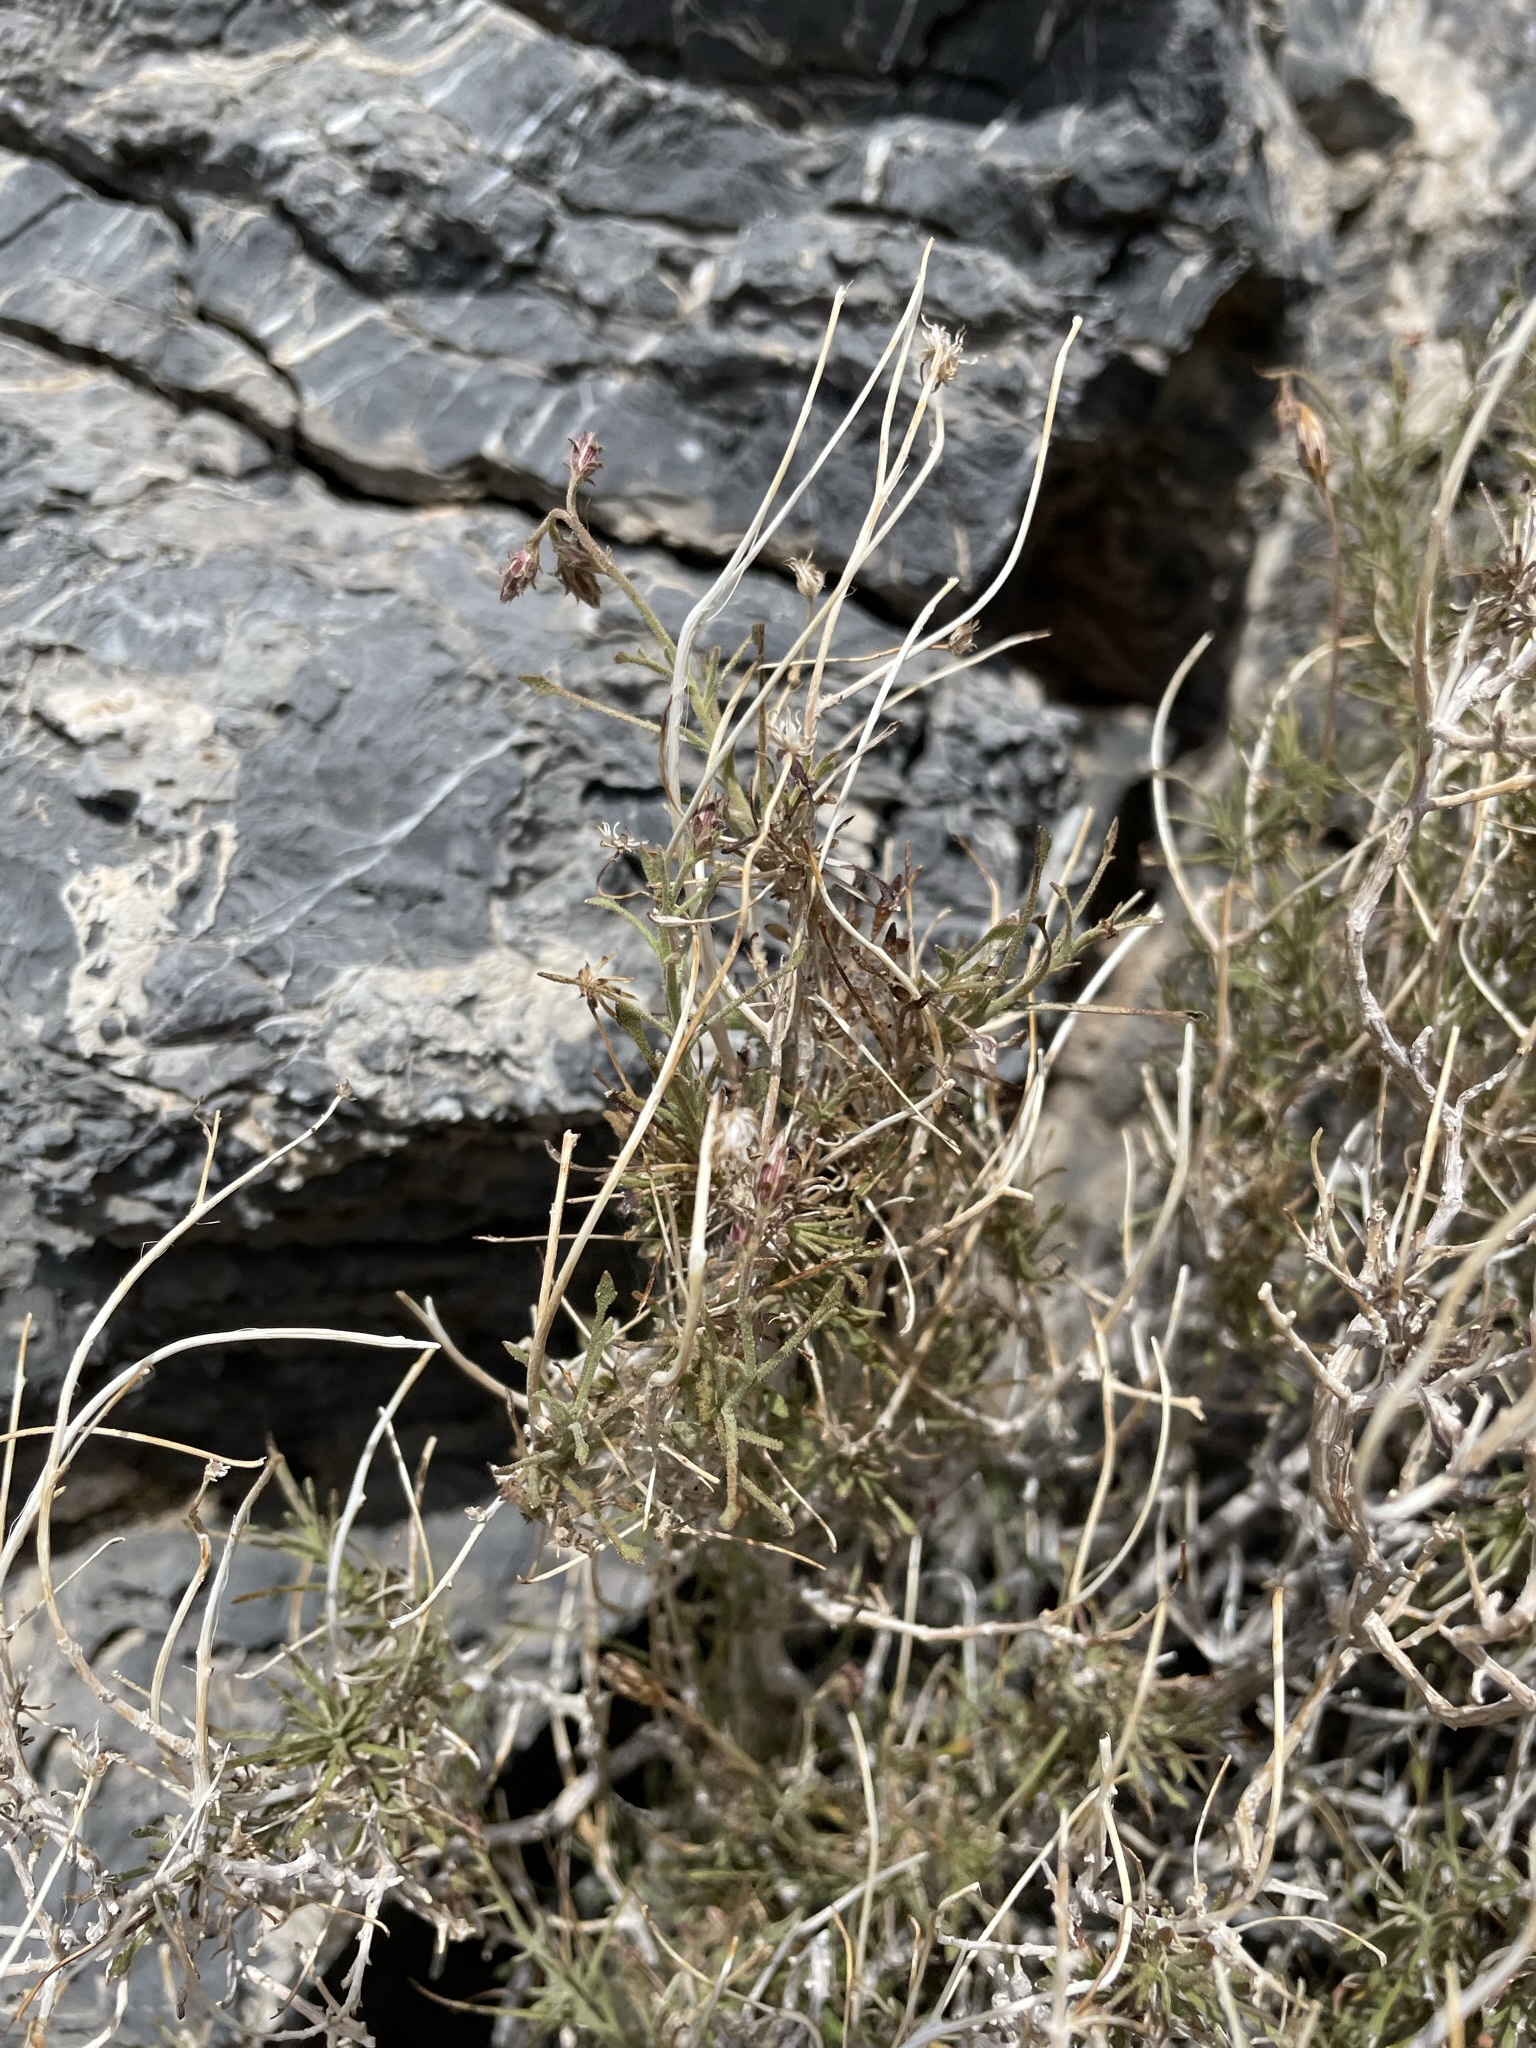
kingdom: Plantae
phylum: Tracheophyta
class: Magnoliopsida
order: Asterales
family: Asteraceae
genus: Pleurocoronis
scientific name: Pleurocoronis pluriseta
